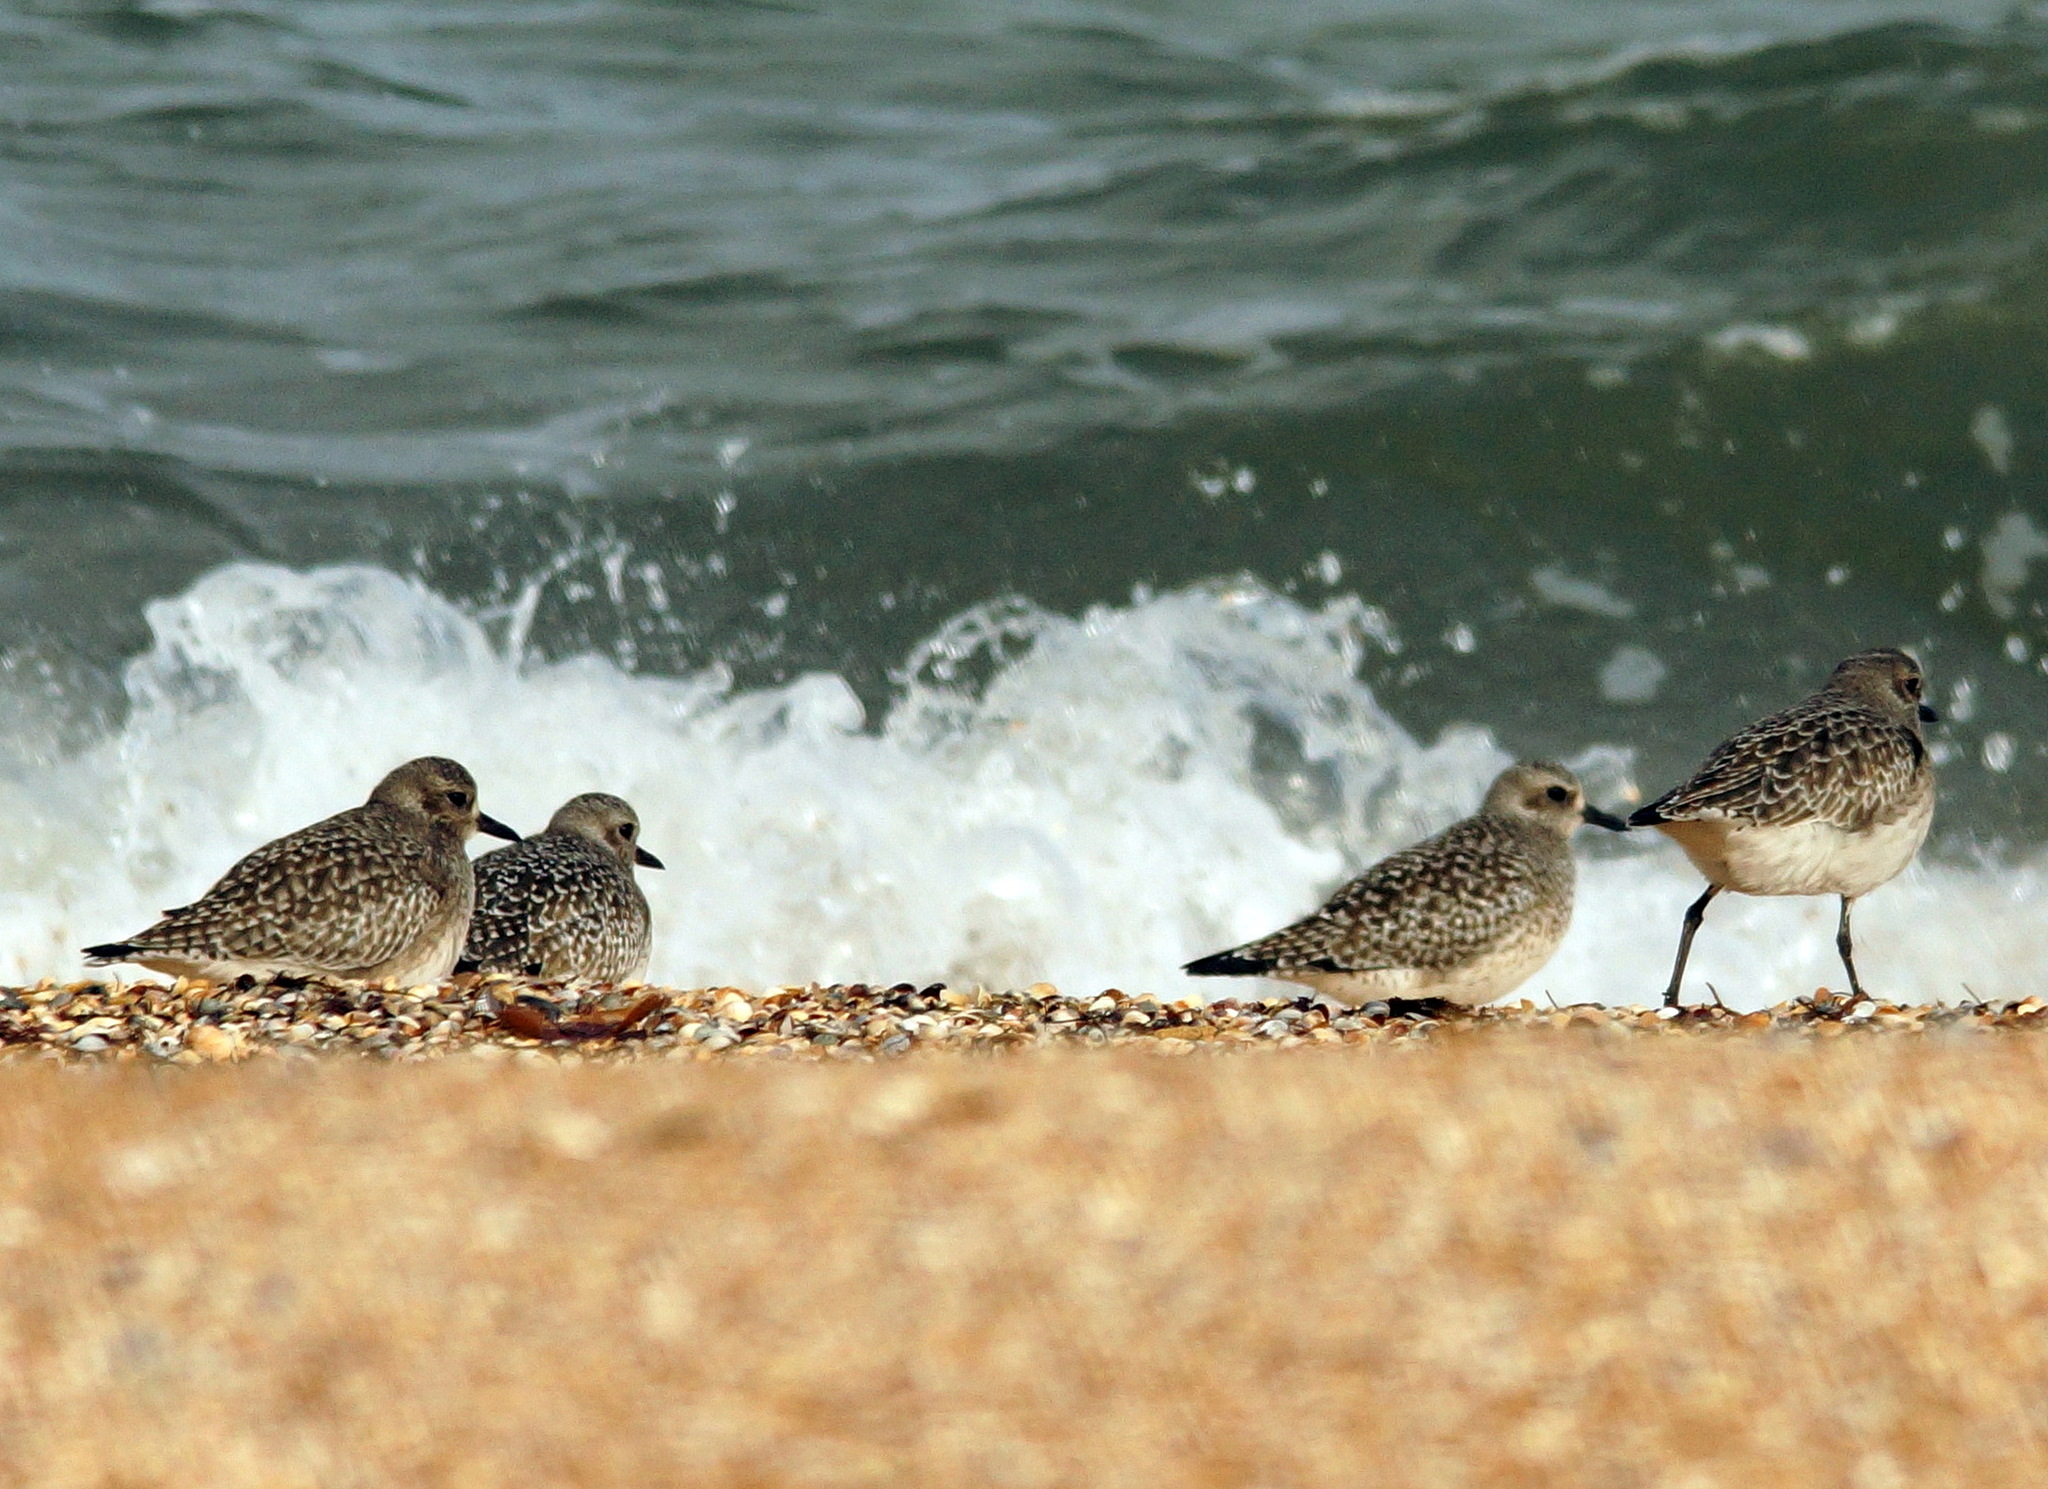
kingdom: Animalia
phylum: Chordata
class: Aves
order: Charadriiformes
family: Charadriidae
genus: Pluvialis
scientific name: Pluvialis squatarola
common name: Grey plover
